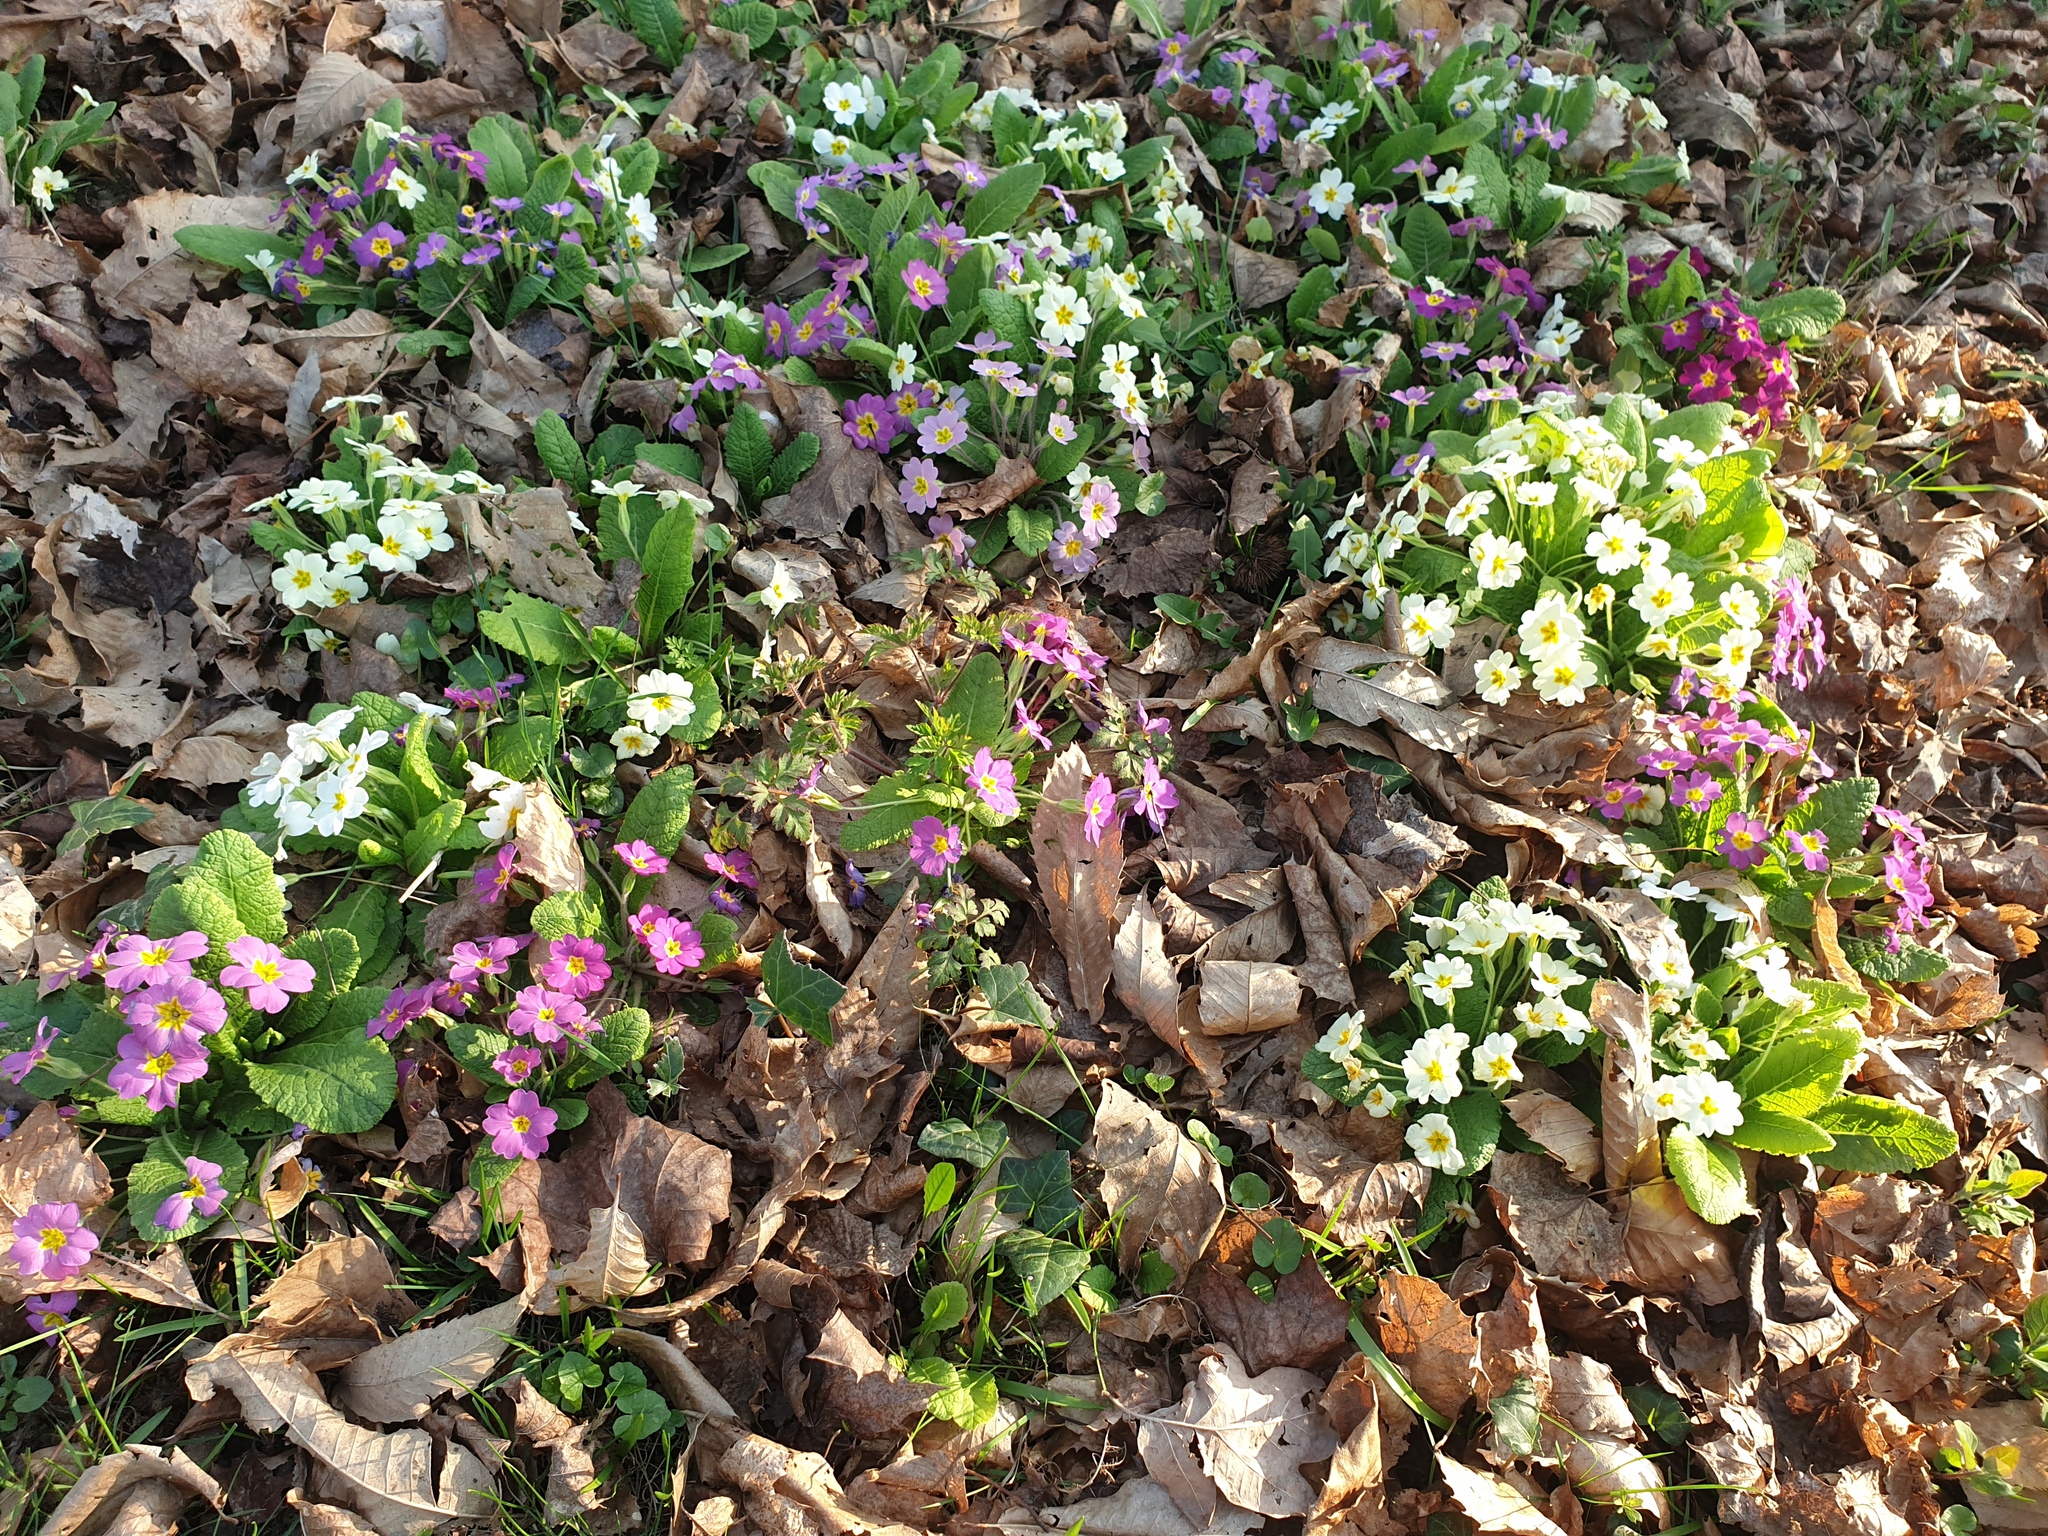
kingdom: Plantae
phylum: Tracheophyta
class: Magnoliopsida
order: Ericales
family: Primulaceae
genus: Primula
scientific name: Primula vulgaris
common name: Primrose
